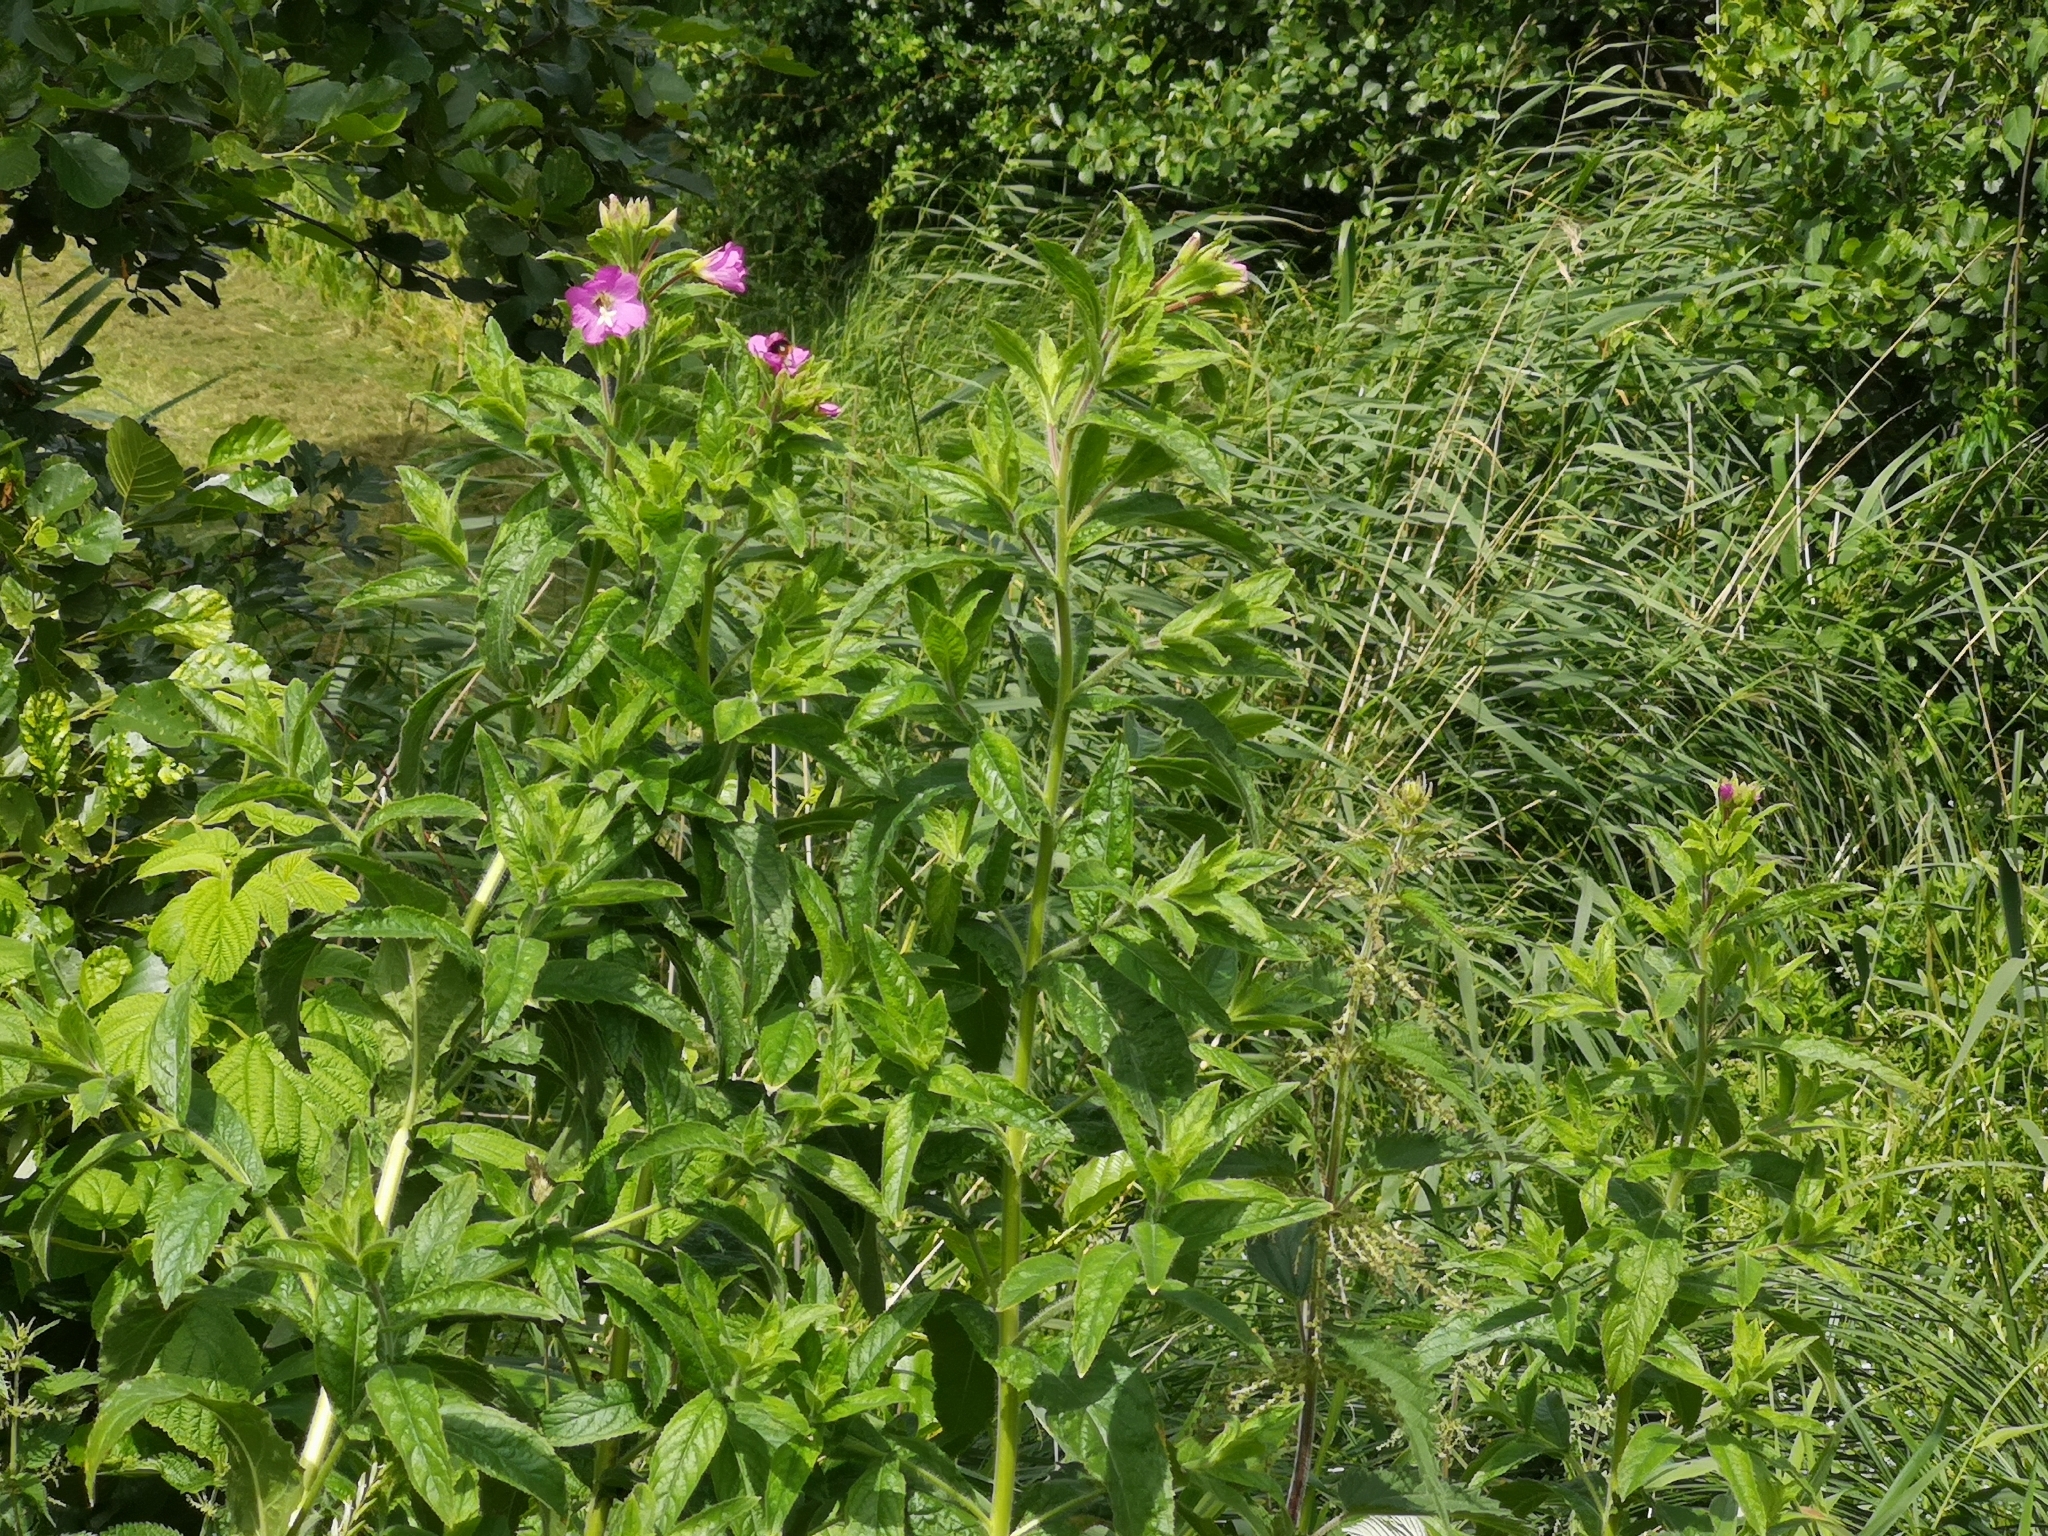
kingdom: Plantae
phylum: Tracheophyta
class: Magnoliopsida
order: Myrtales
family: Onagraceae
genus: Epilobium
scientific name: Epilobium hirsutum
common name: Great willowherb
